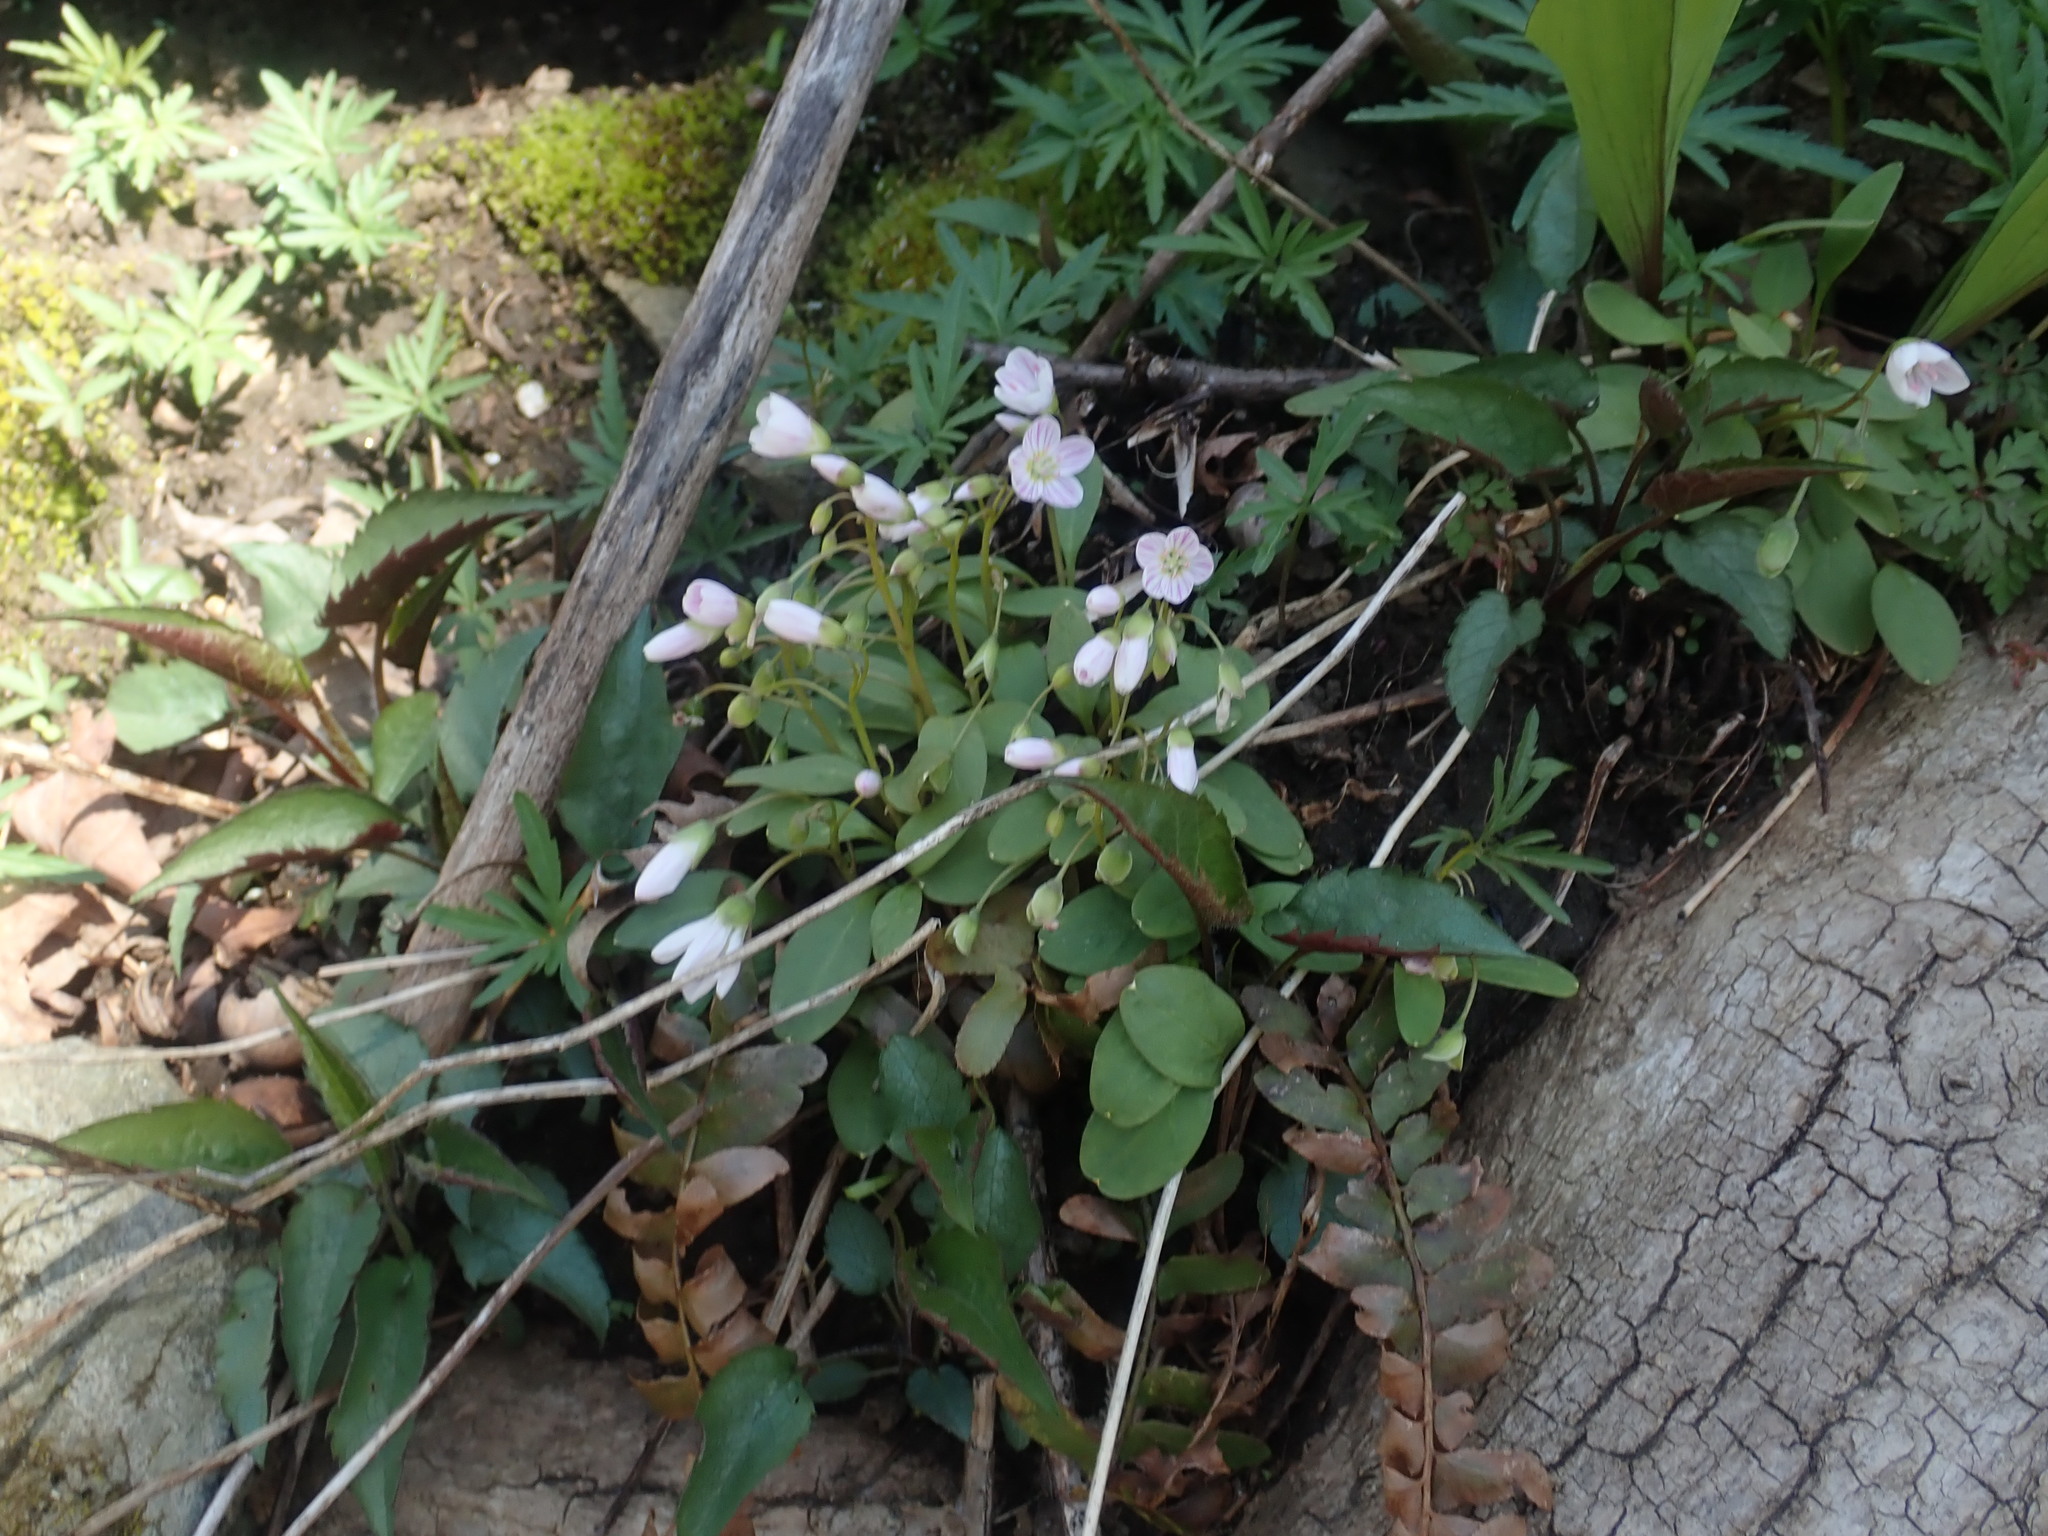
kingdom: Plantae
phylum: Tracheophyta
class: Magnoliopsida
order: Caryophyllales
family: Montiaceae
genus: Claytonia
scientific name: Claytonia caroliniana
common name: Carolina spring beauty
